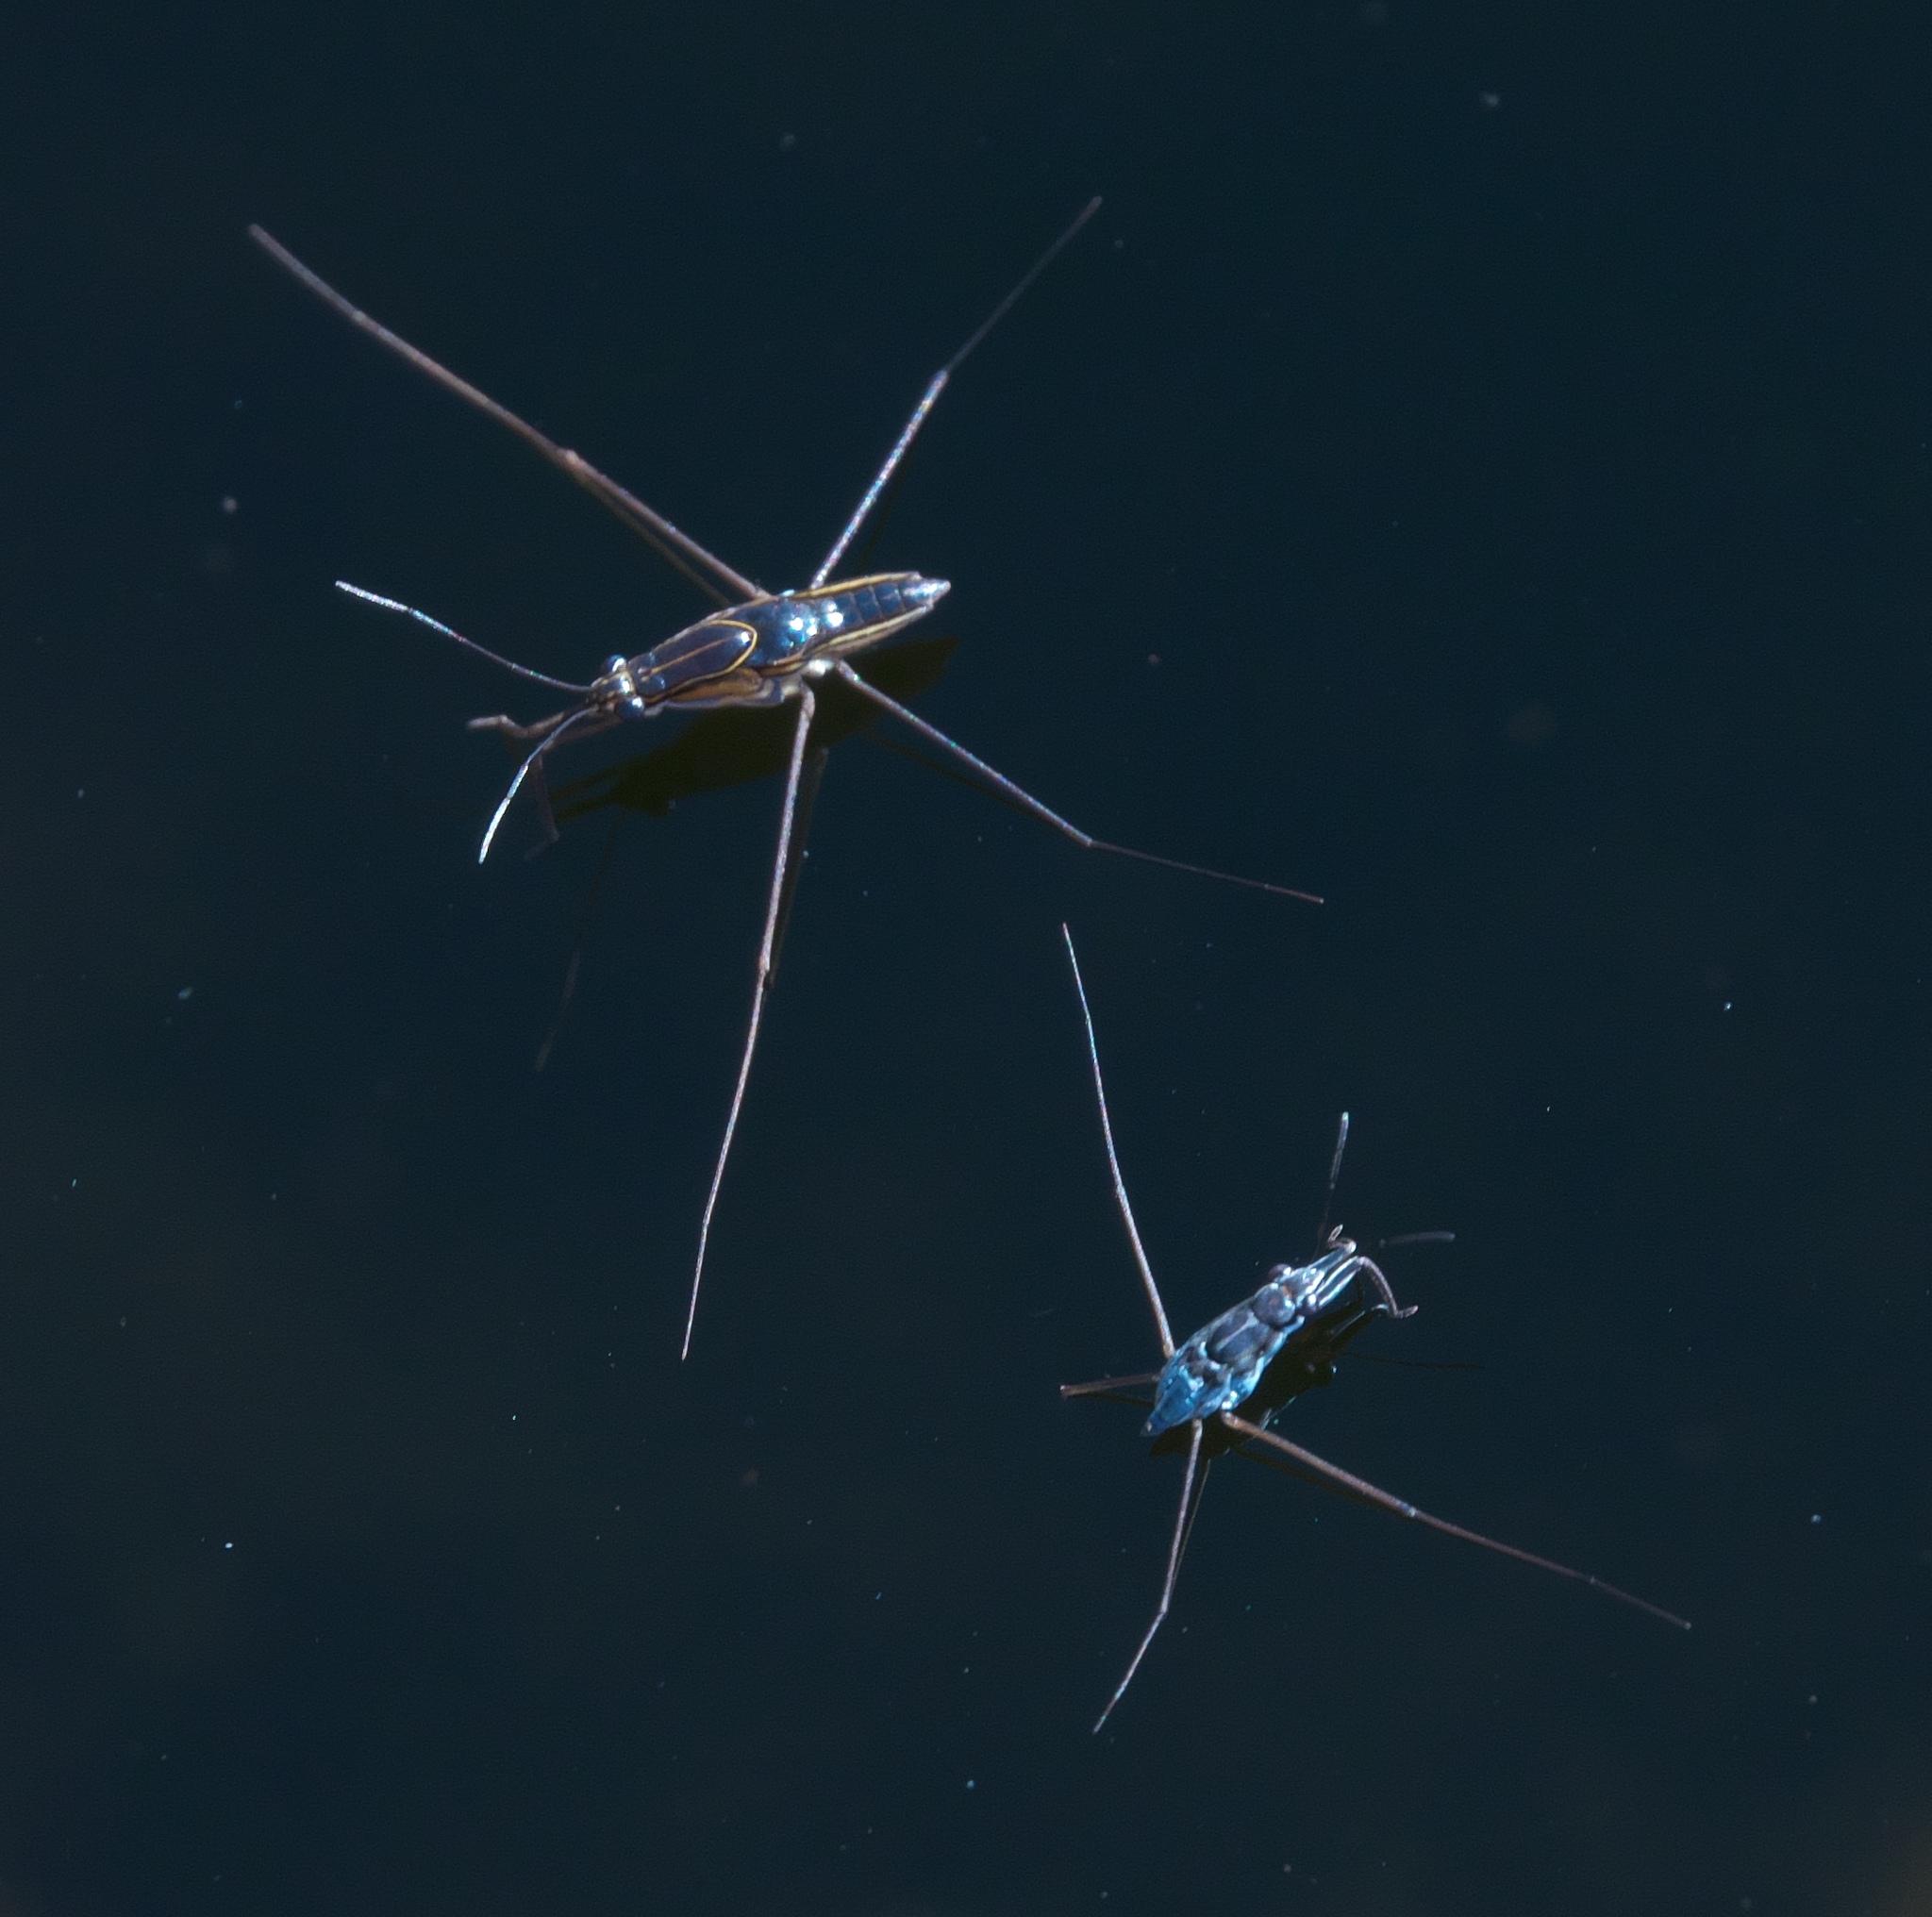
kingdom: Animalia
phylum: Arthropoda
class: Insecta
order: Hemiptera
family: Gerridae
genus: Limnogonus
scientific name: Limnogonus franciscanus
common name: Franciscan pond skater
